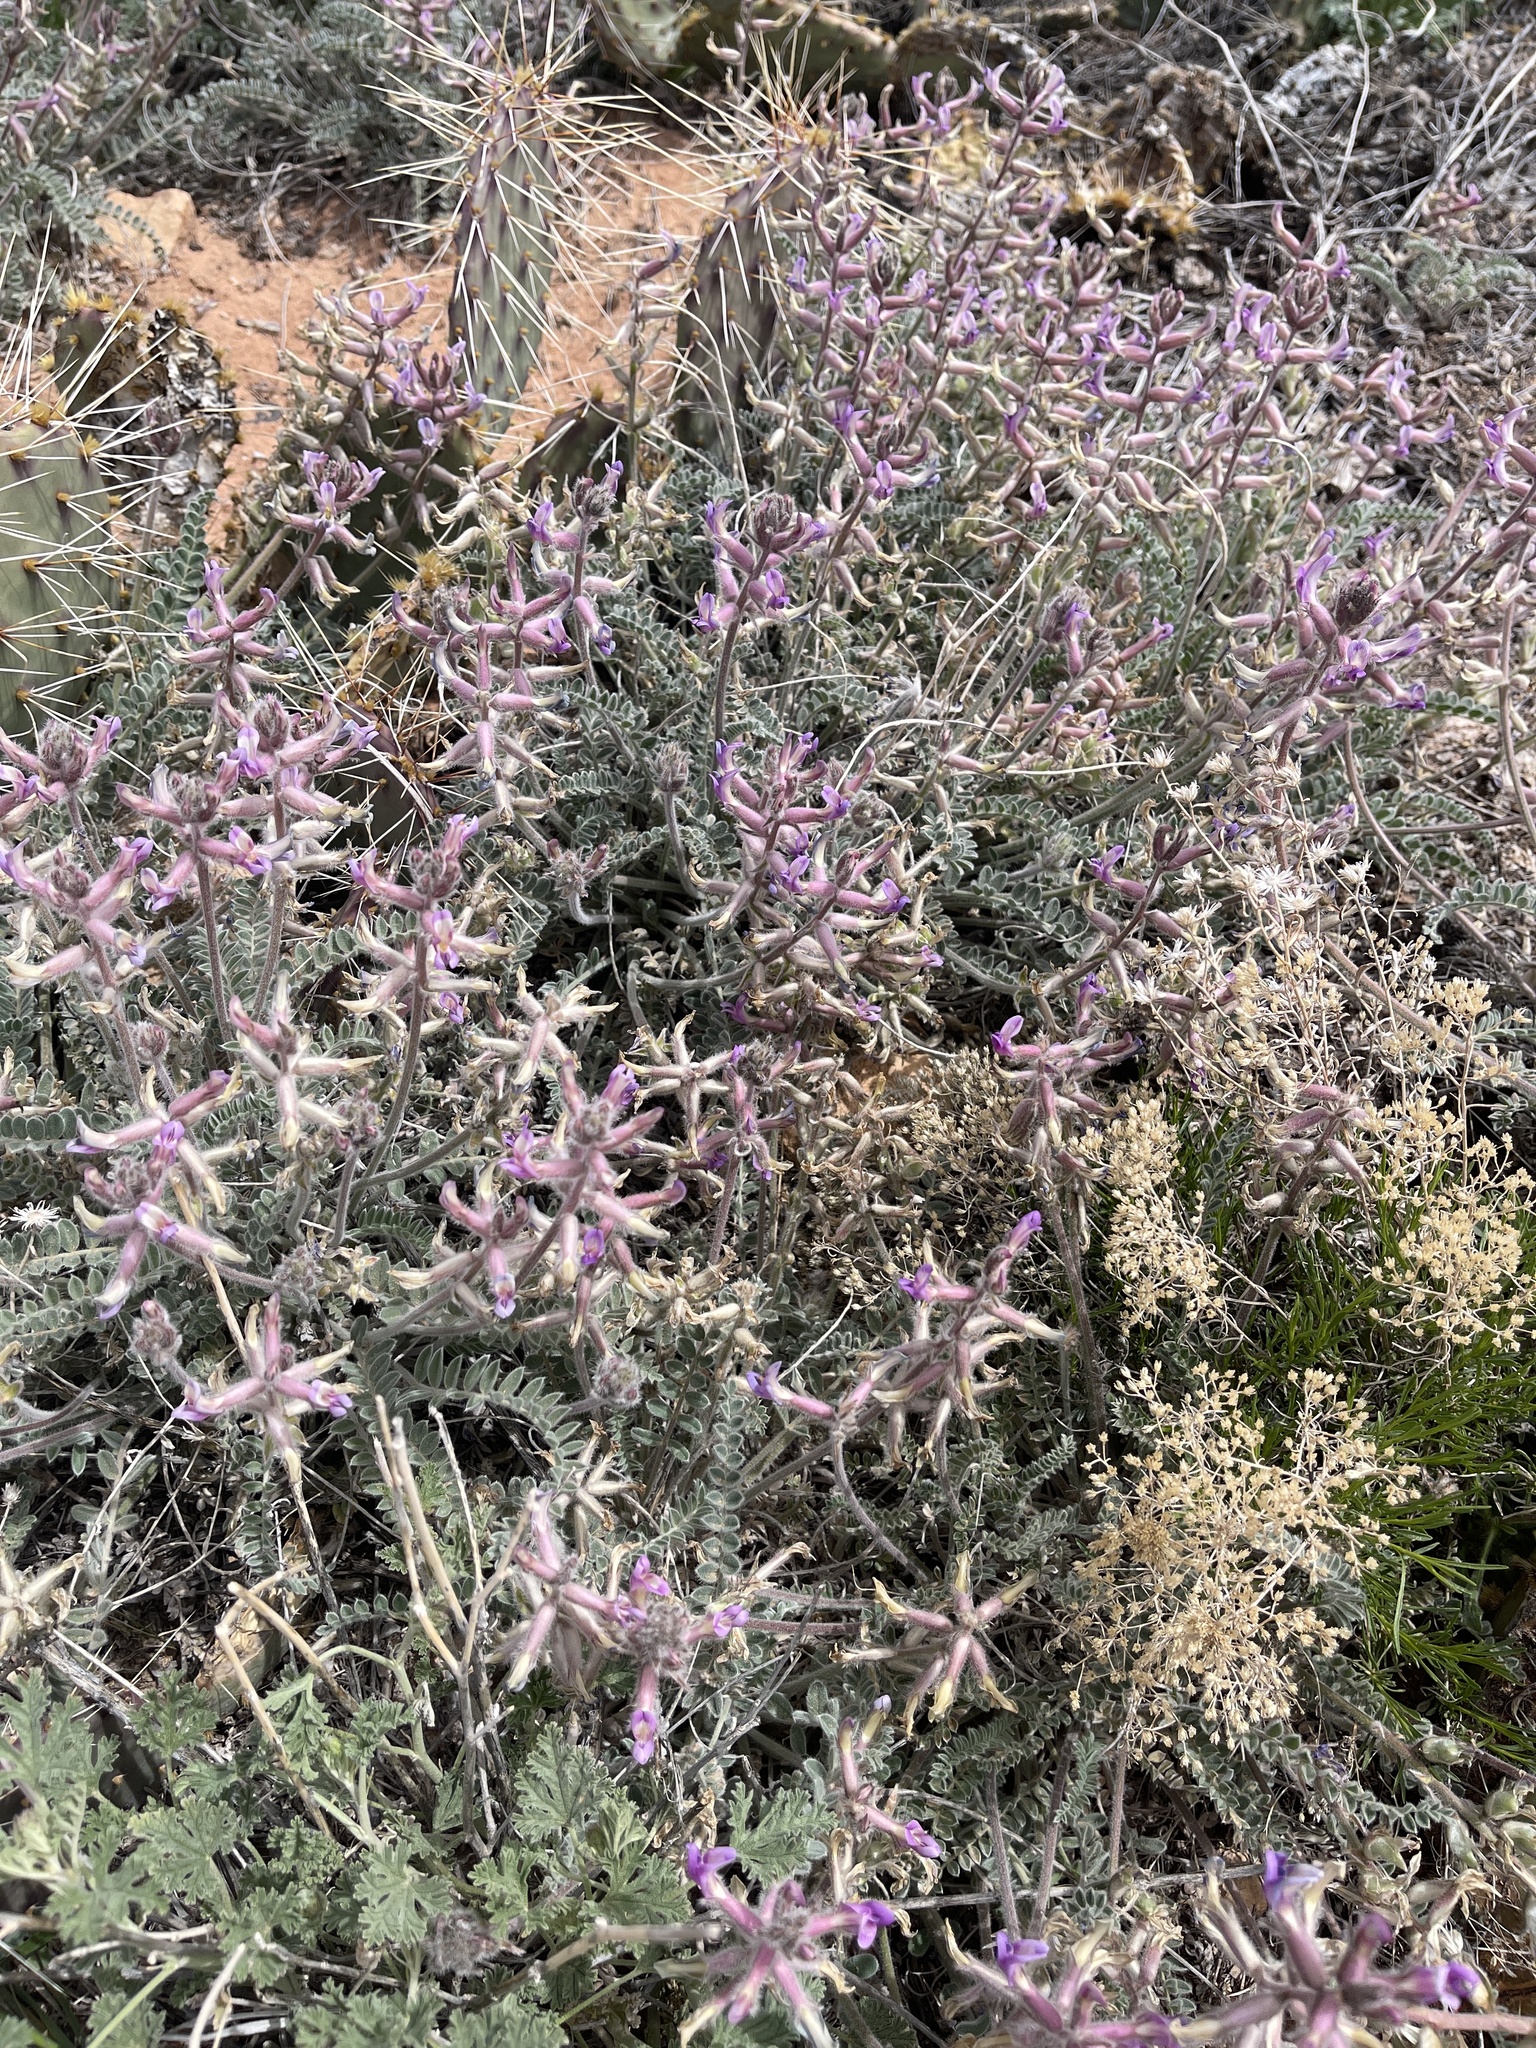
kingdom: Plantae
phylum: Tracheophyta
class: Magnoliopsida
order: Fabales
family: Fabaceae
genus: Astragalus
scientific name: Astragalus mollissimus
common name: Woolly locoweed
